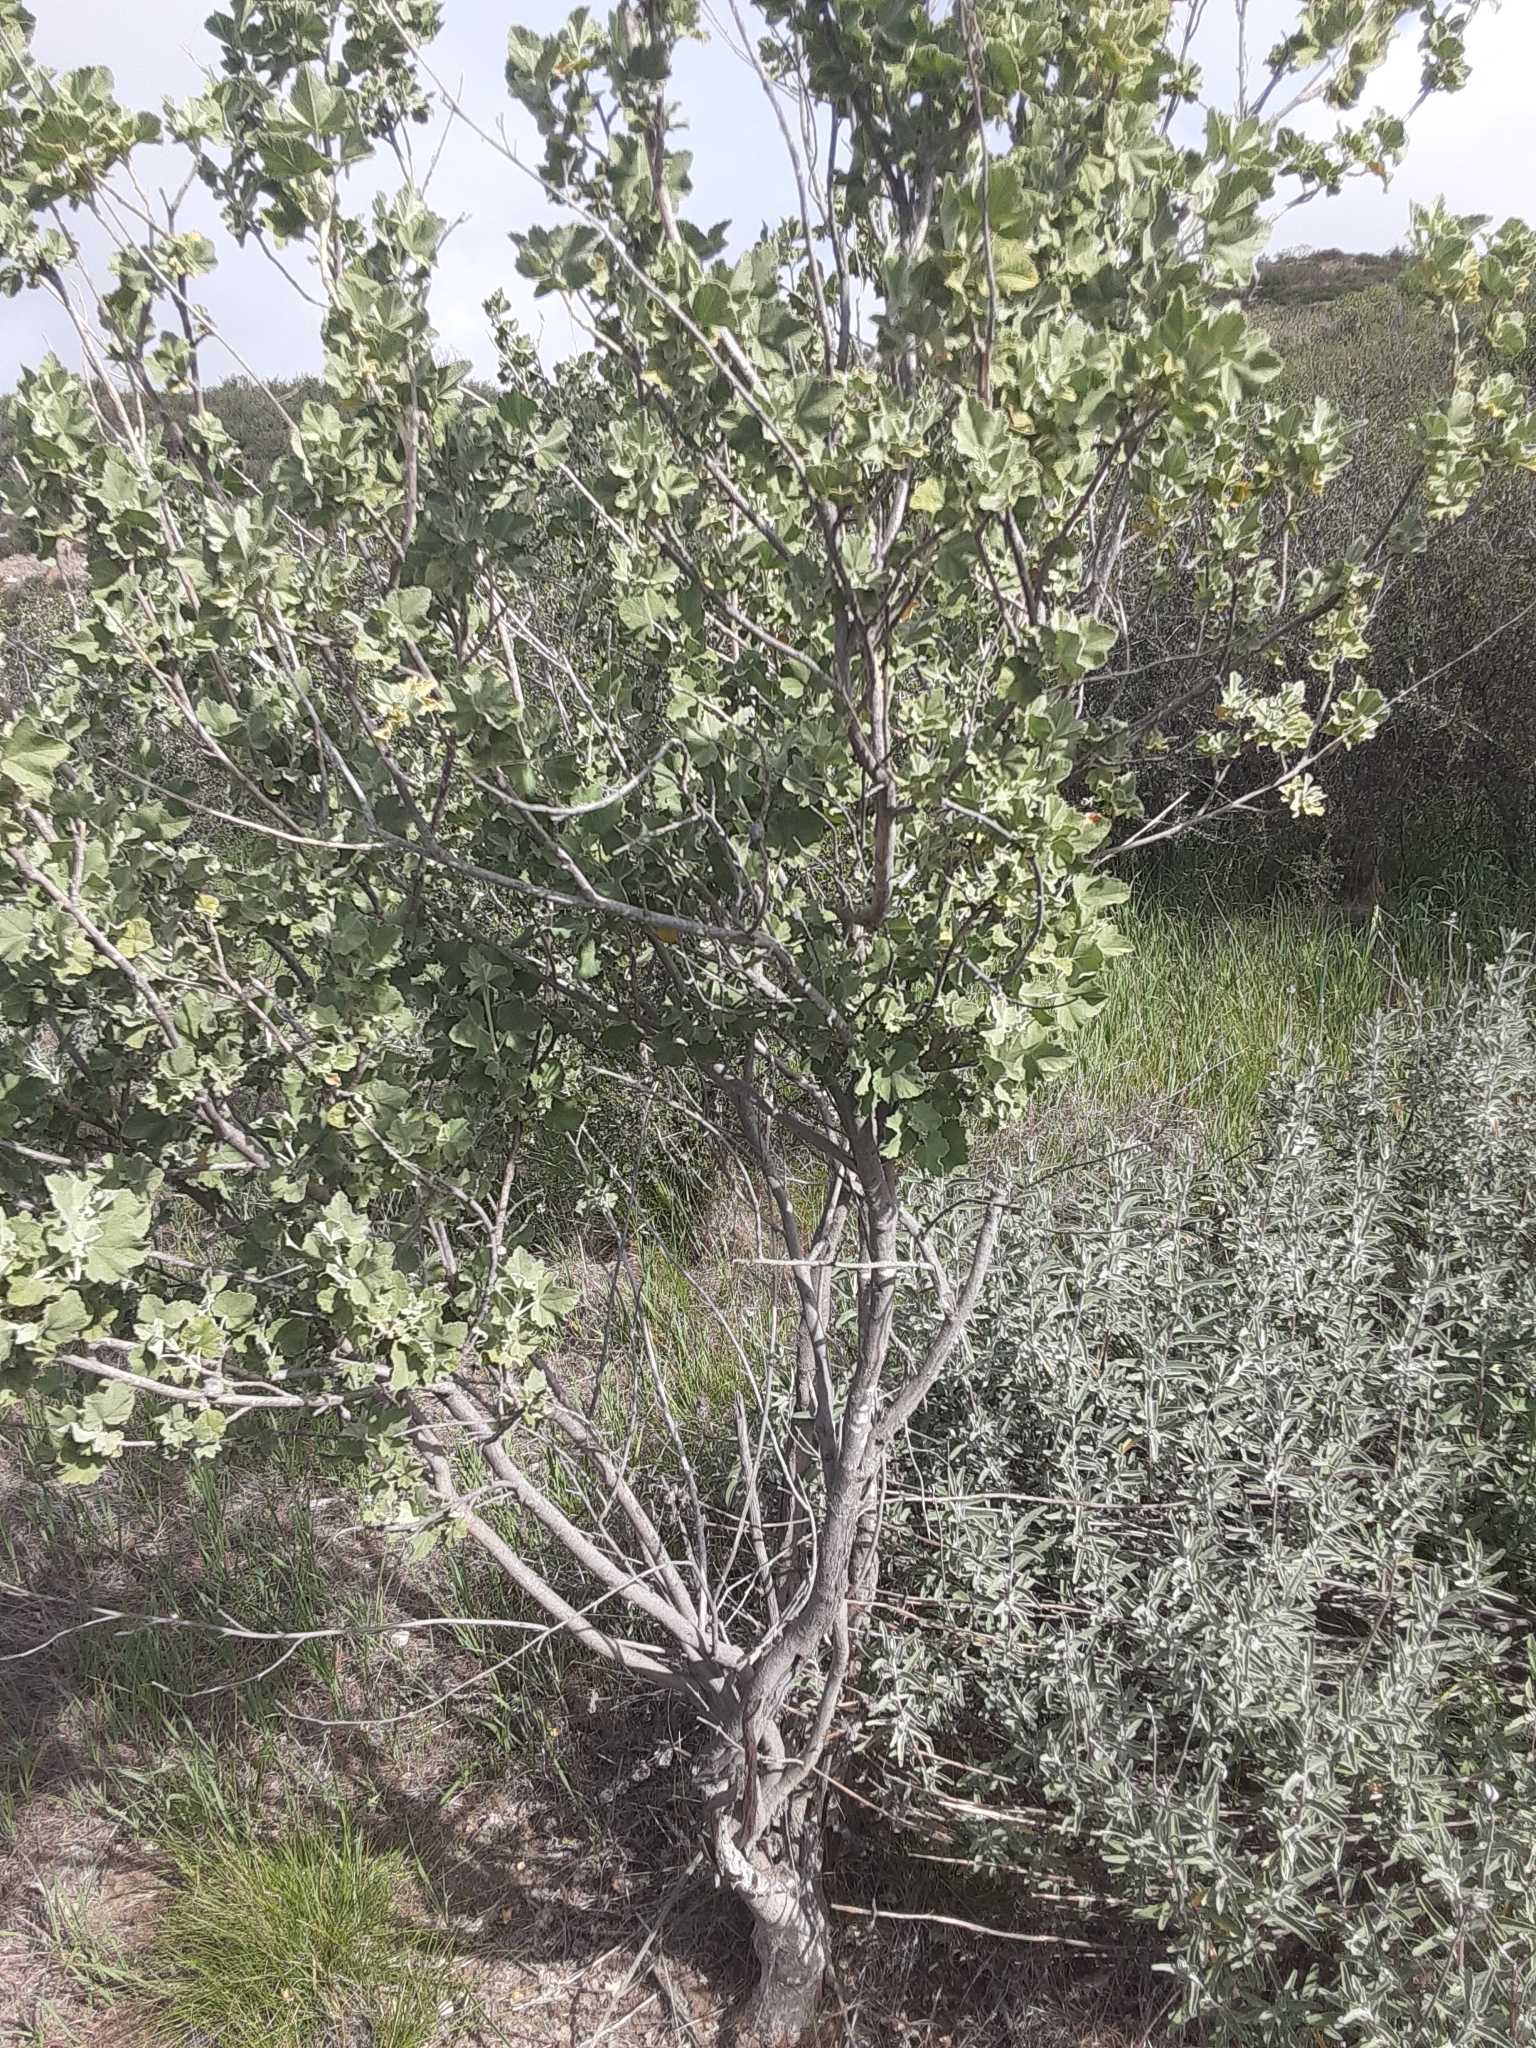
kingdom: Plantae
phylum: Tracheophyta
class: Magnoliopsida
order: Malvales
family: Malvaceae
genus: Malacothamnus
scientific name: Malacothamnus fasciculatus
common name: Sant cruz island bush-mallow
